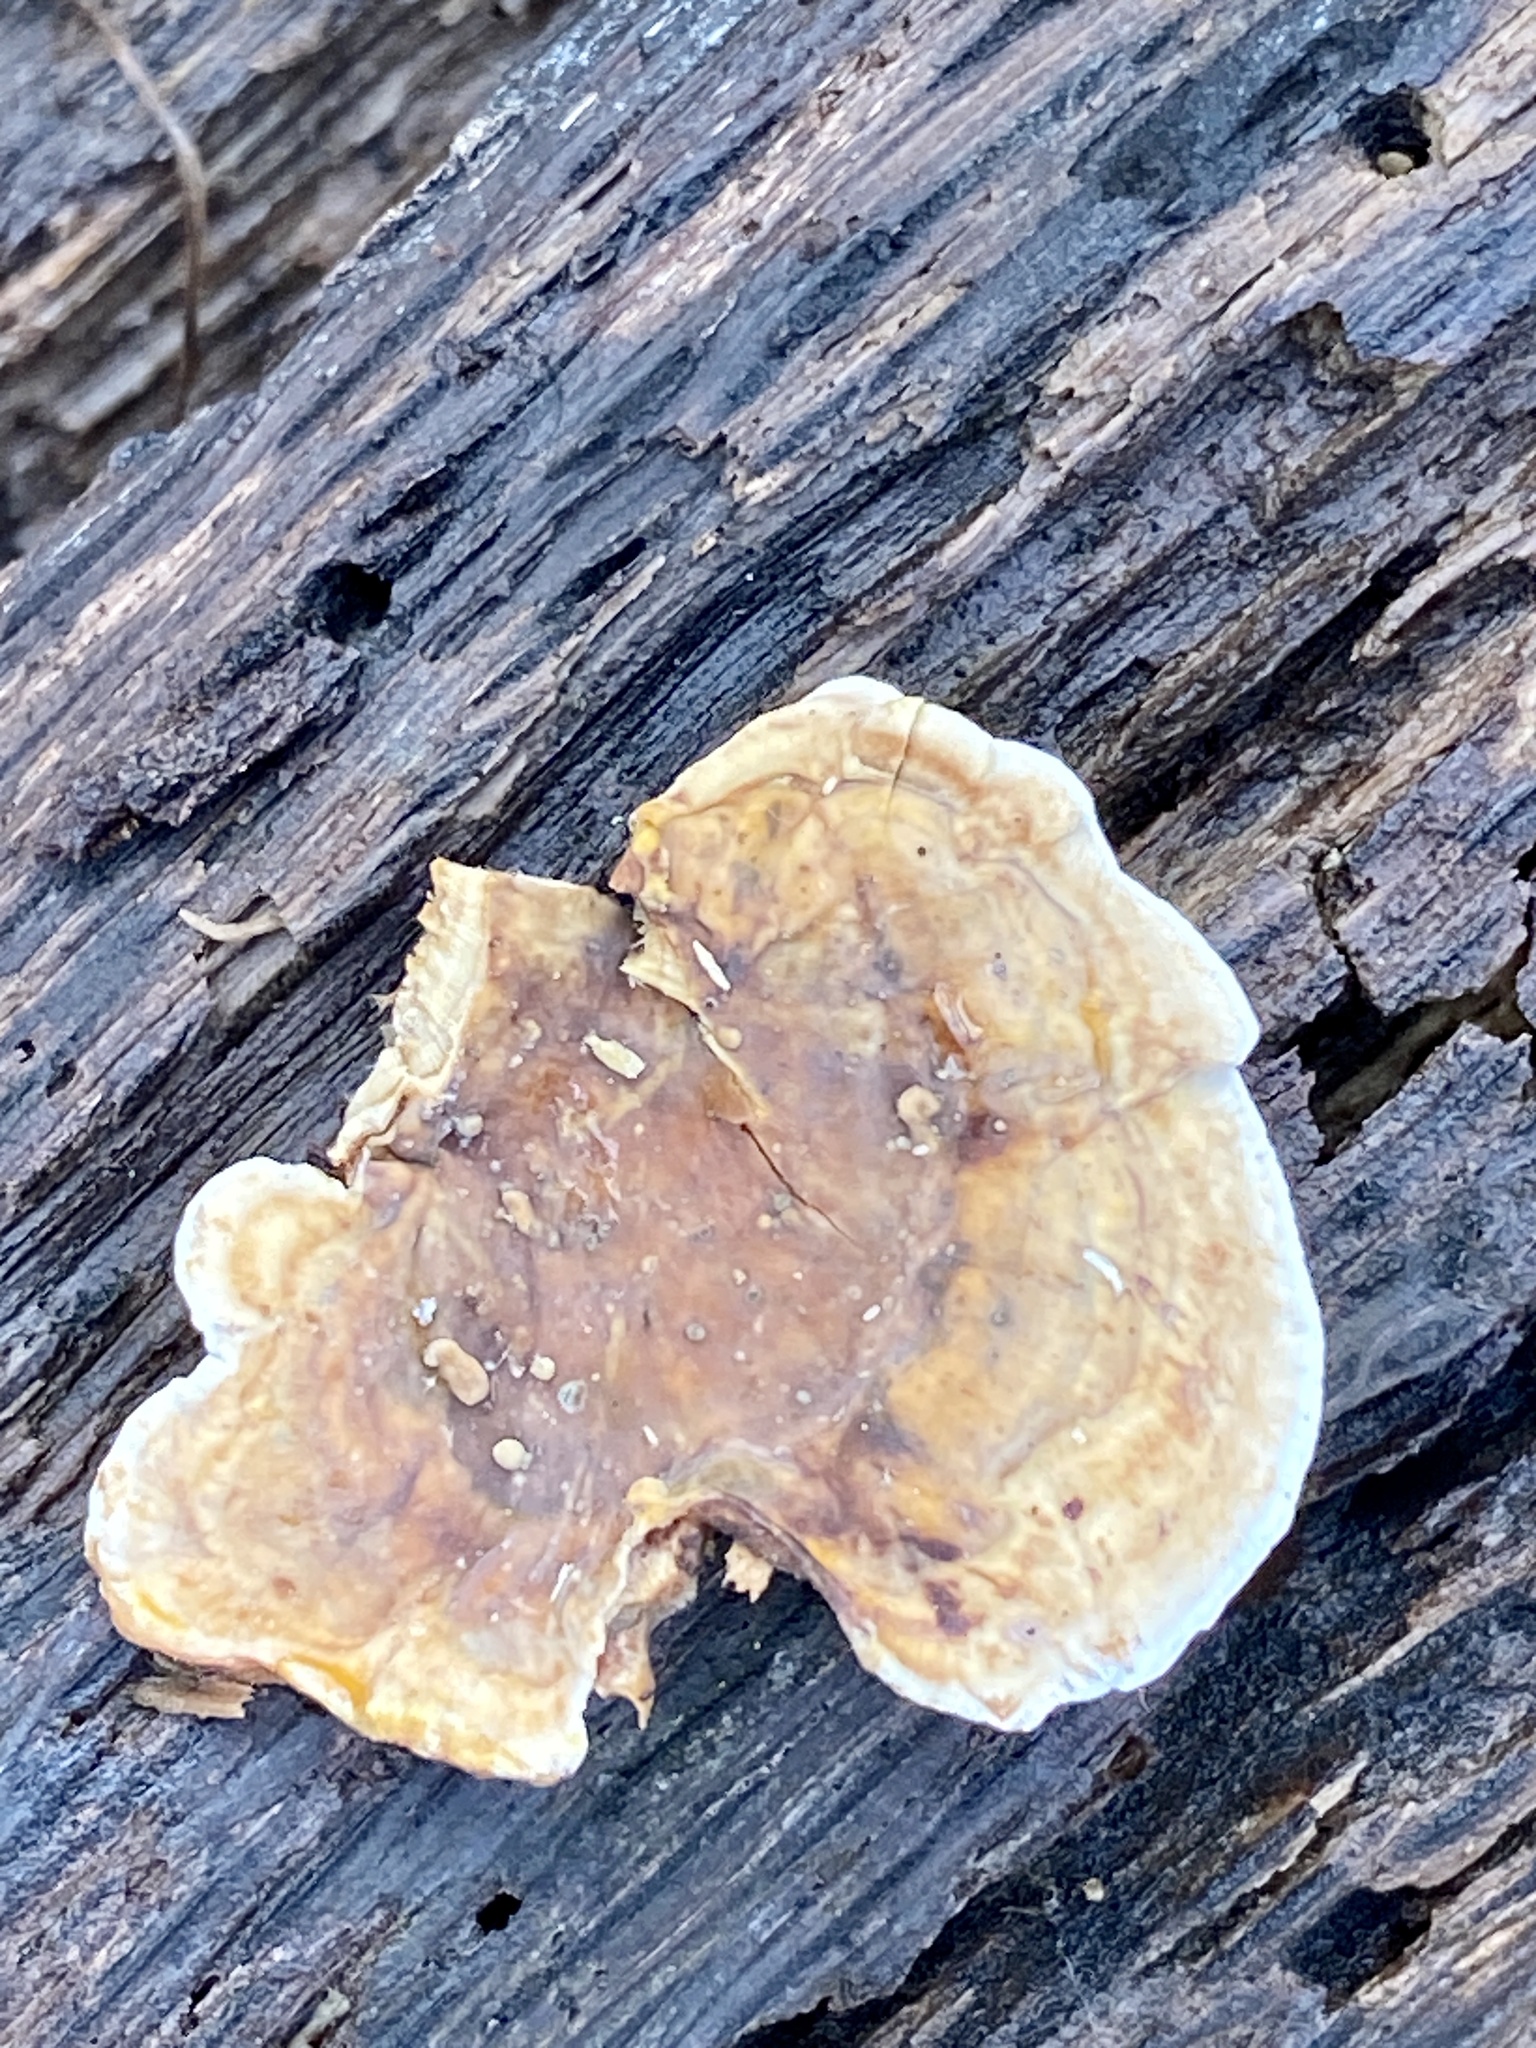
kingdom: Fungi
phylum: Basidiomycota
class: Agaricomycetes
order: Russulales
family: Stereaceae
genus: Stereum
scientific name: Stereum ostrea
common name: False turkeytail
